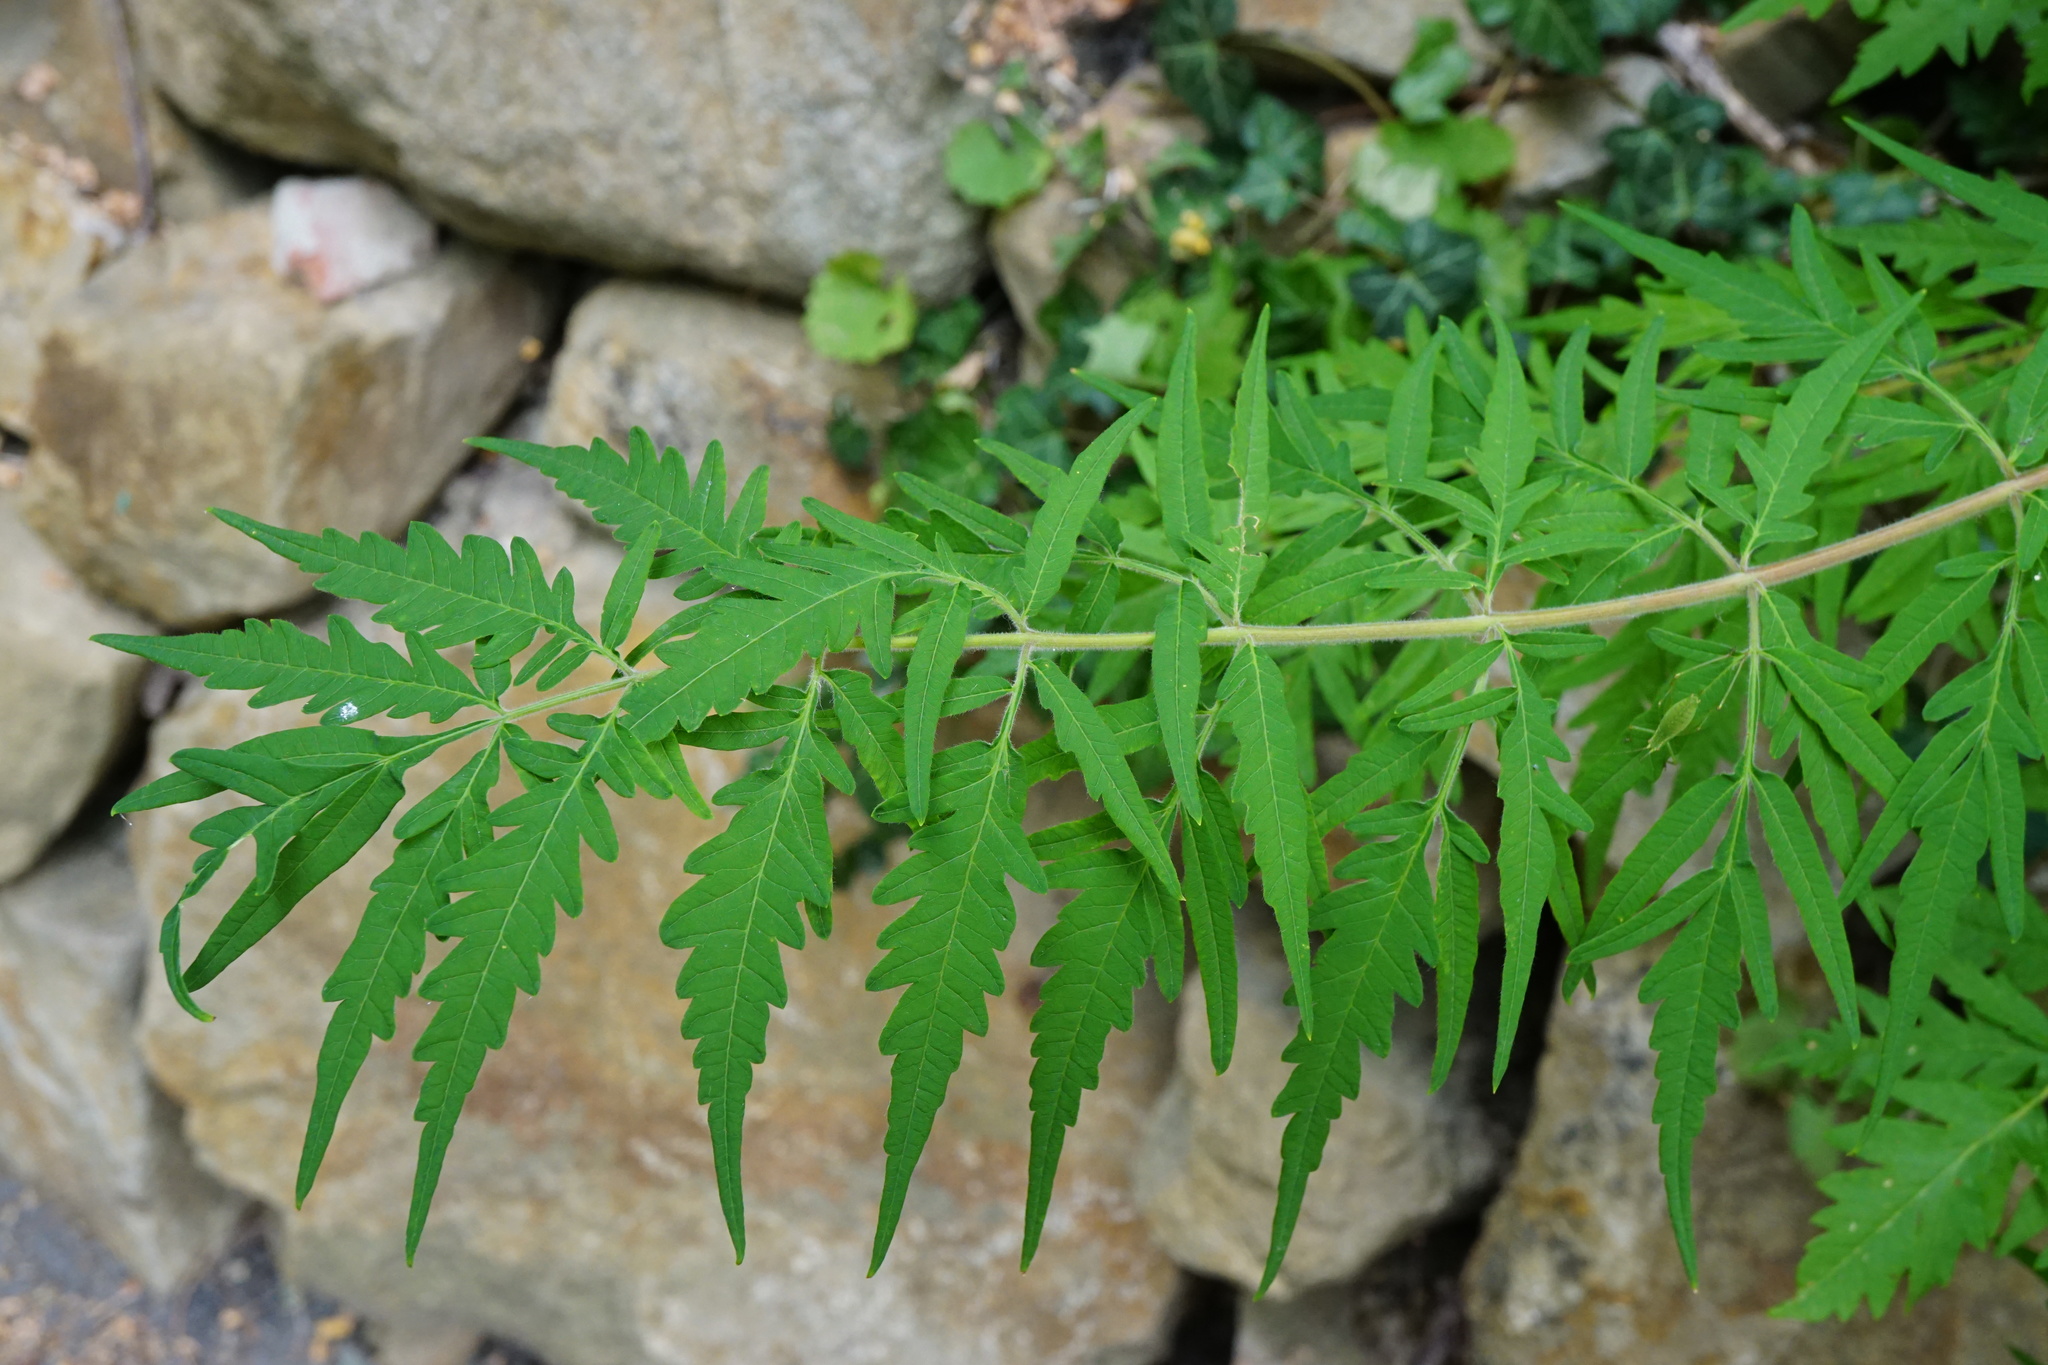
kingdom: Plantae
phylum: Tracheophyta
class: Magnoliopsida
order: Sapindales
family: Anacardiaceae
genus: Rhus
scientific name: Rhus typhina
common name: Staghorn sumac
